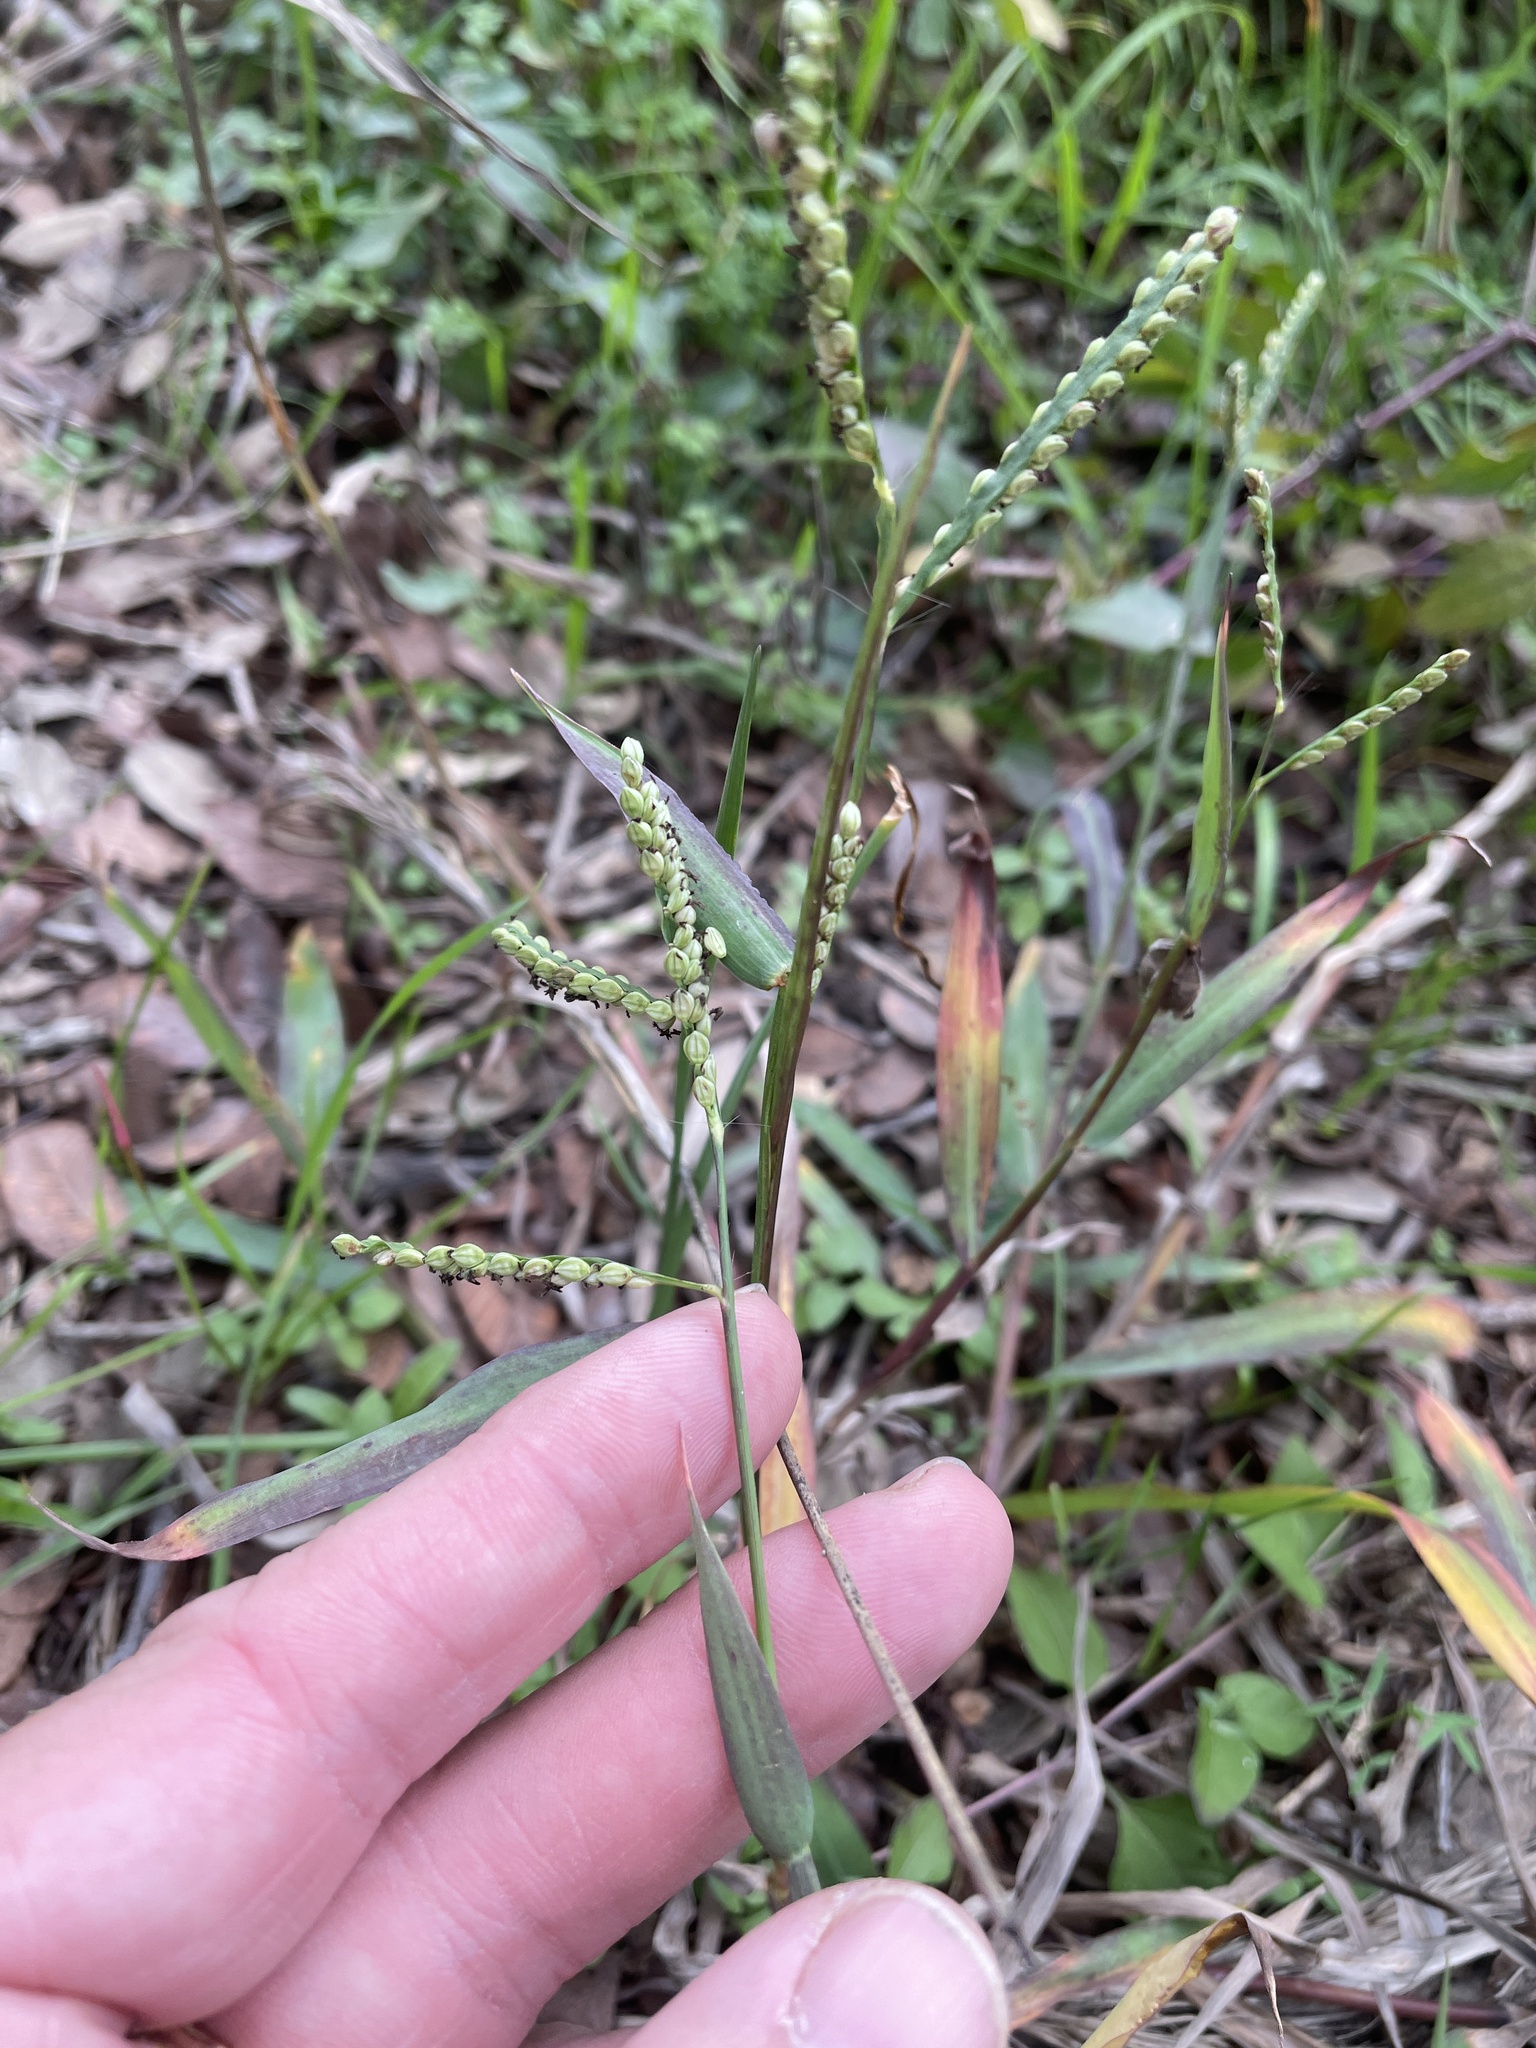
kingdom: Plantae
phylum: Tracheophyta
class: Liliopsida
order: Poales
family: Poaceae
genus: Paspalum
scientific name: Paspalum pubiflorum
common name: Hairy-seed paspalum
